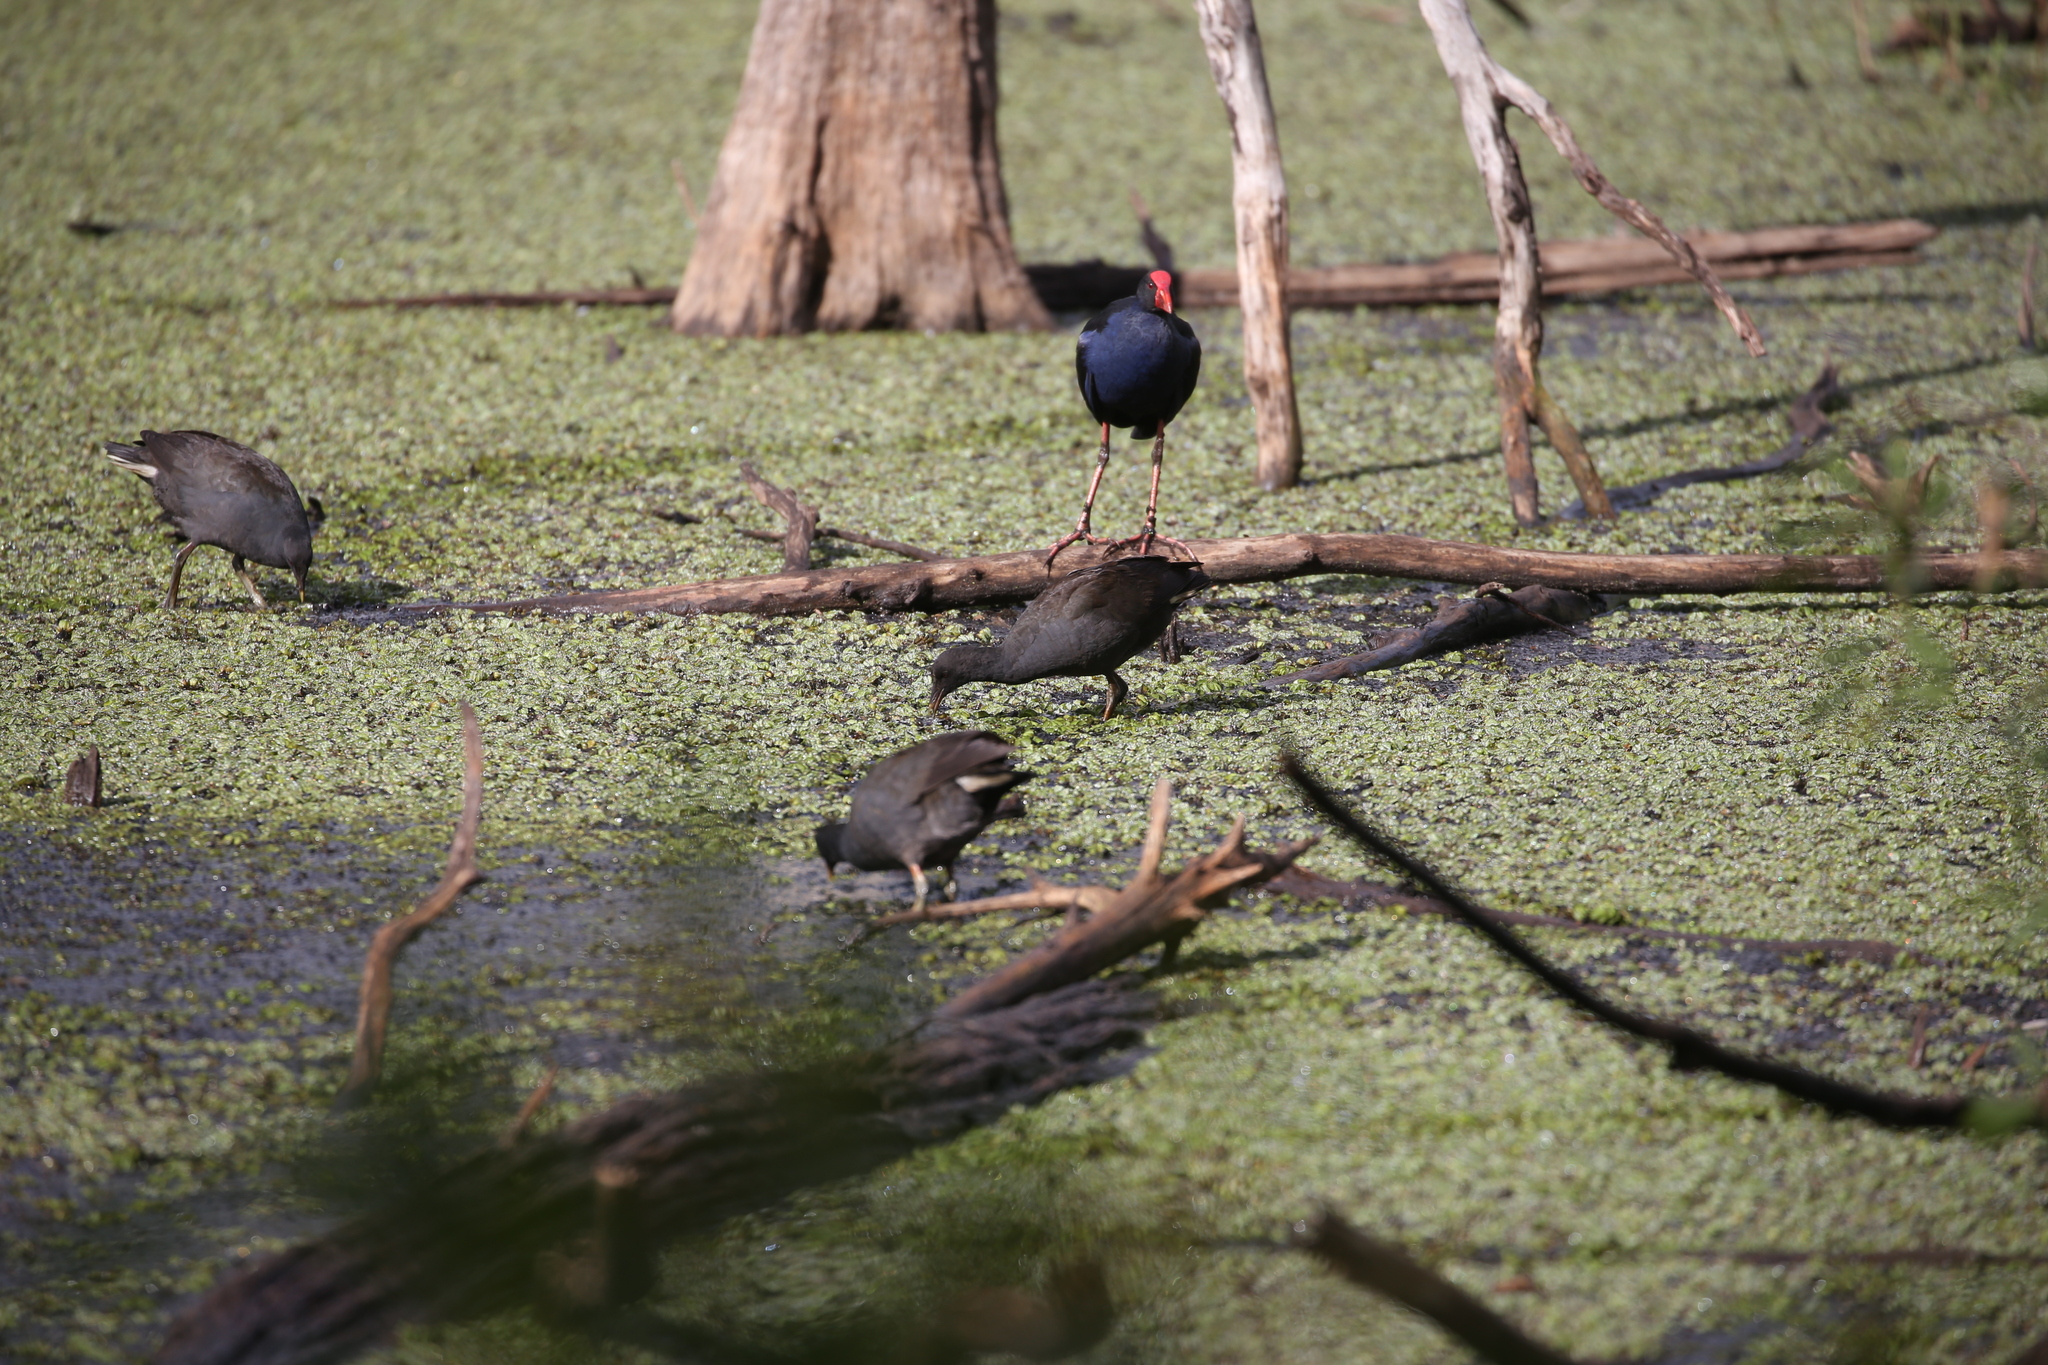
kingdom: Animalia
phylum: Chordata
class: Aves
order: Gruiformes
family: Rallidae
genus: Porphyrio
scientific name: Porphyrio melanotus
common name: Australasian swamphen
